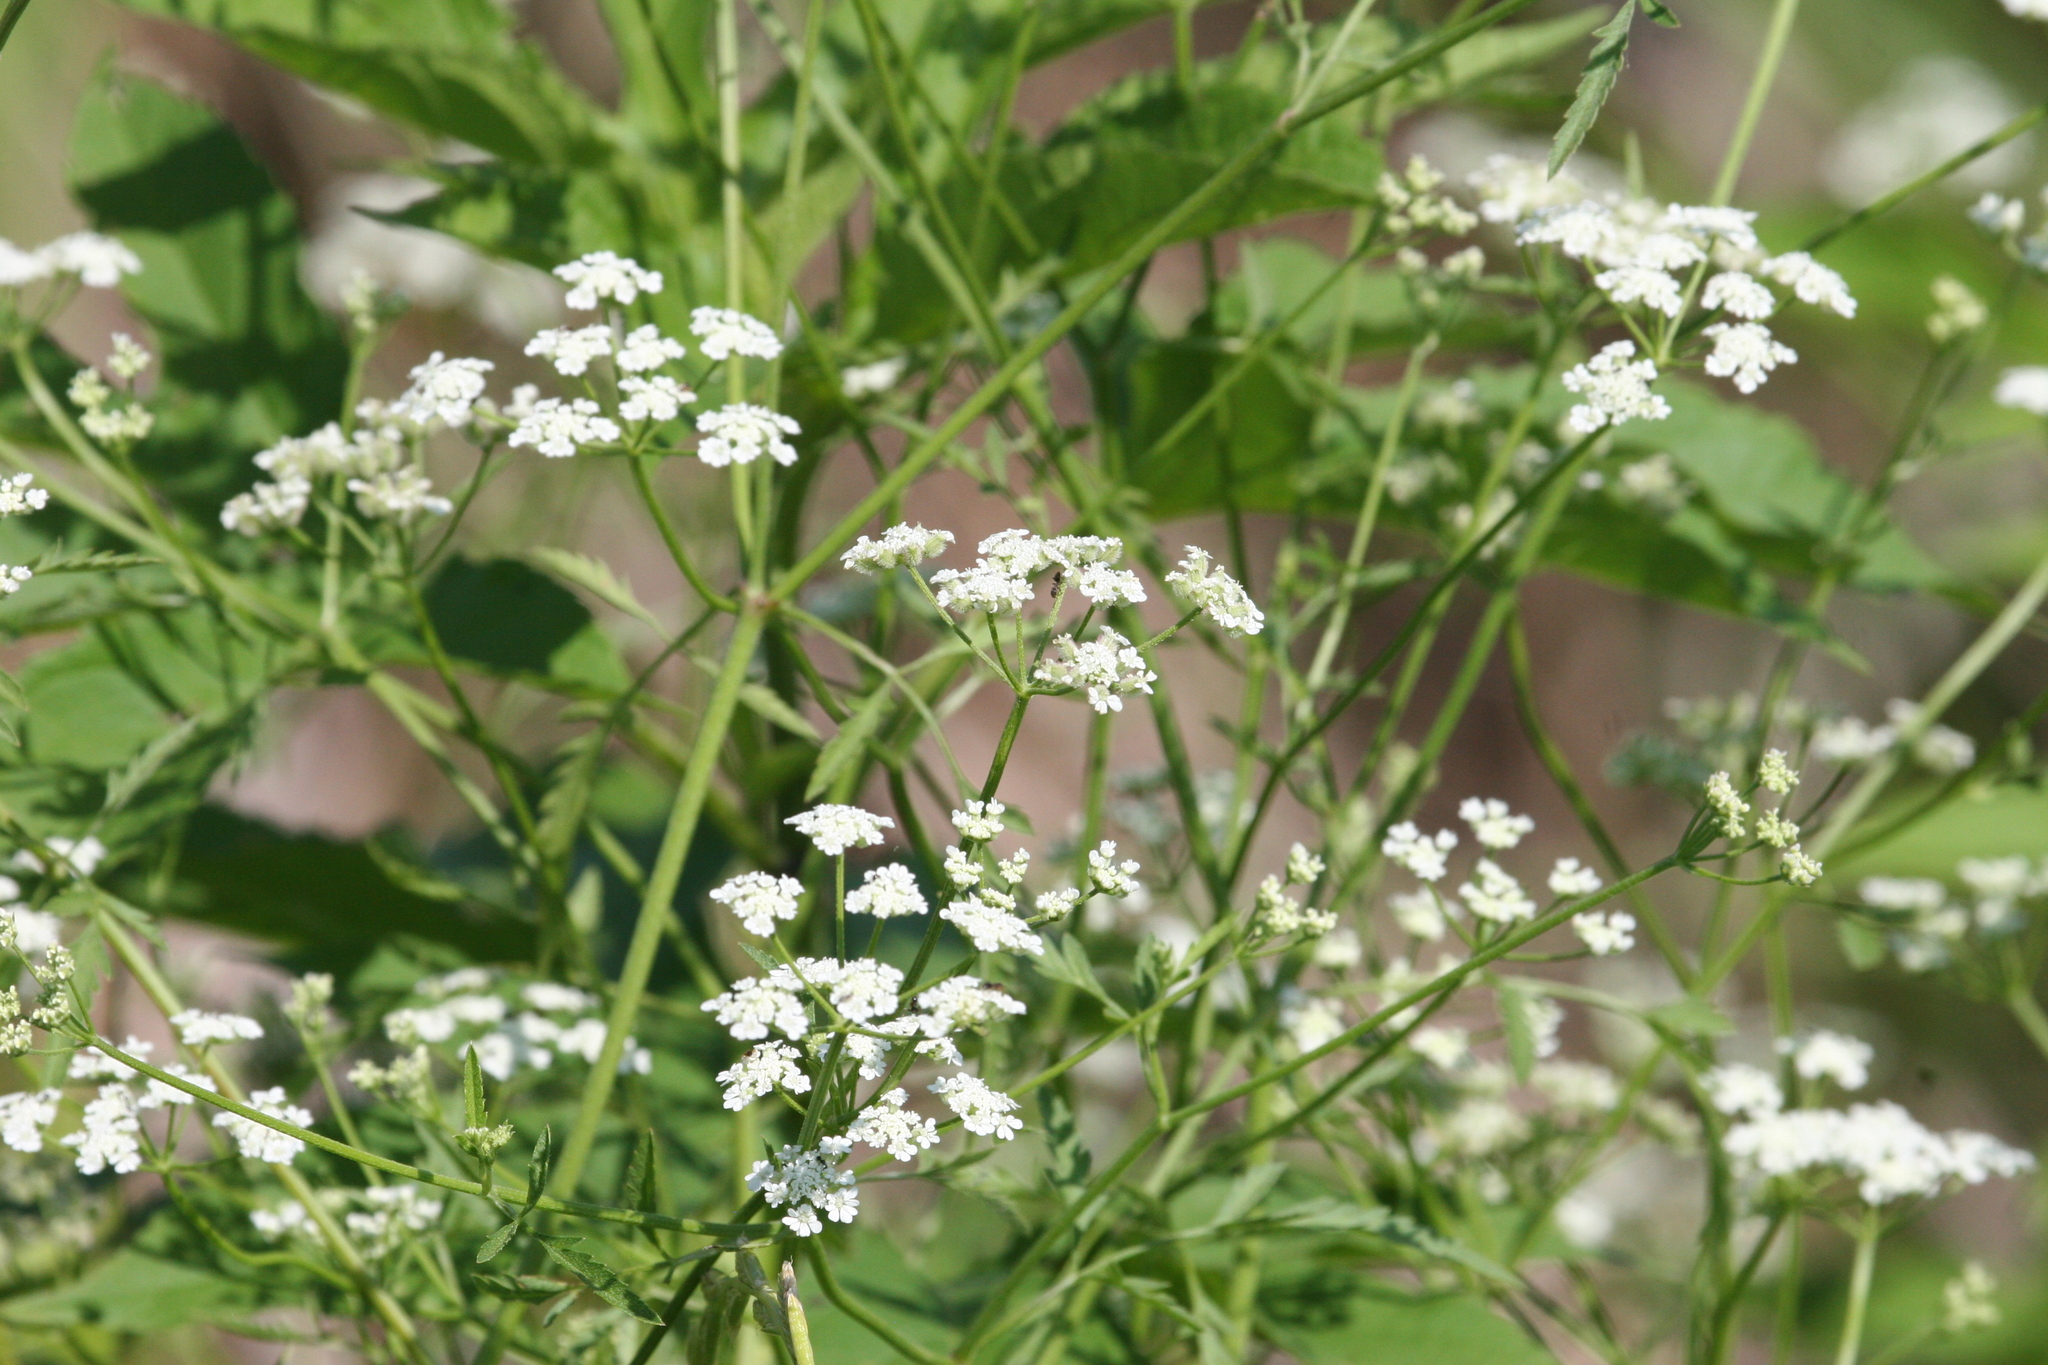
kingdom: Plantae
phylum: Tracheophyta
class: Magnoliopsida
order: Apiales
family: Apiaceae
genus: Torilis
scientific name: Torilis arvensis
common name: Spreading hedge-parsley
